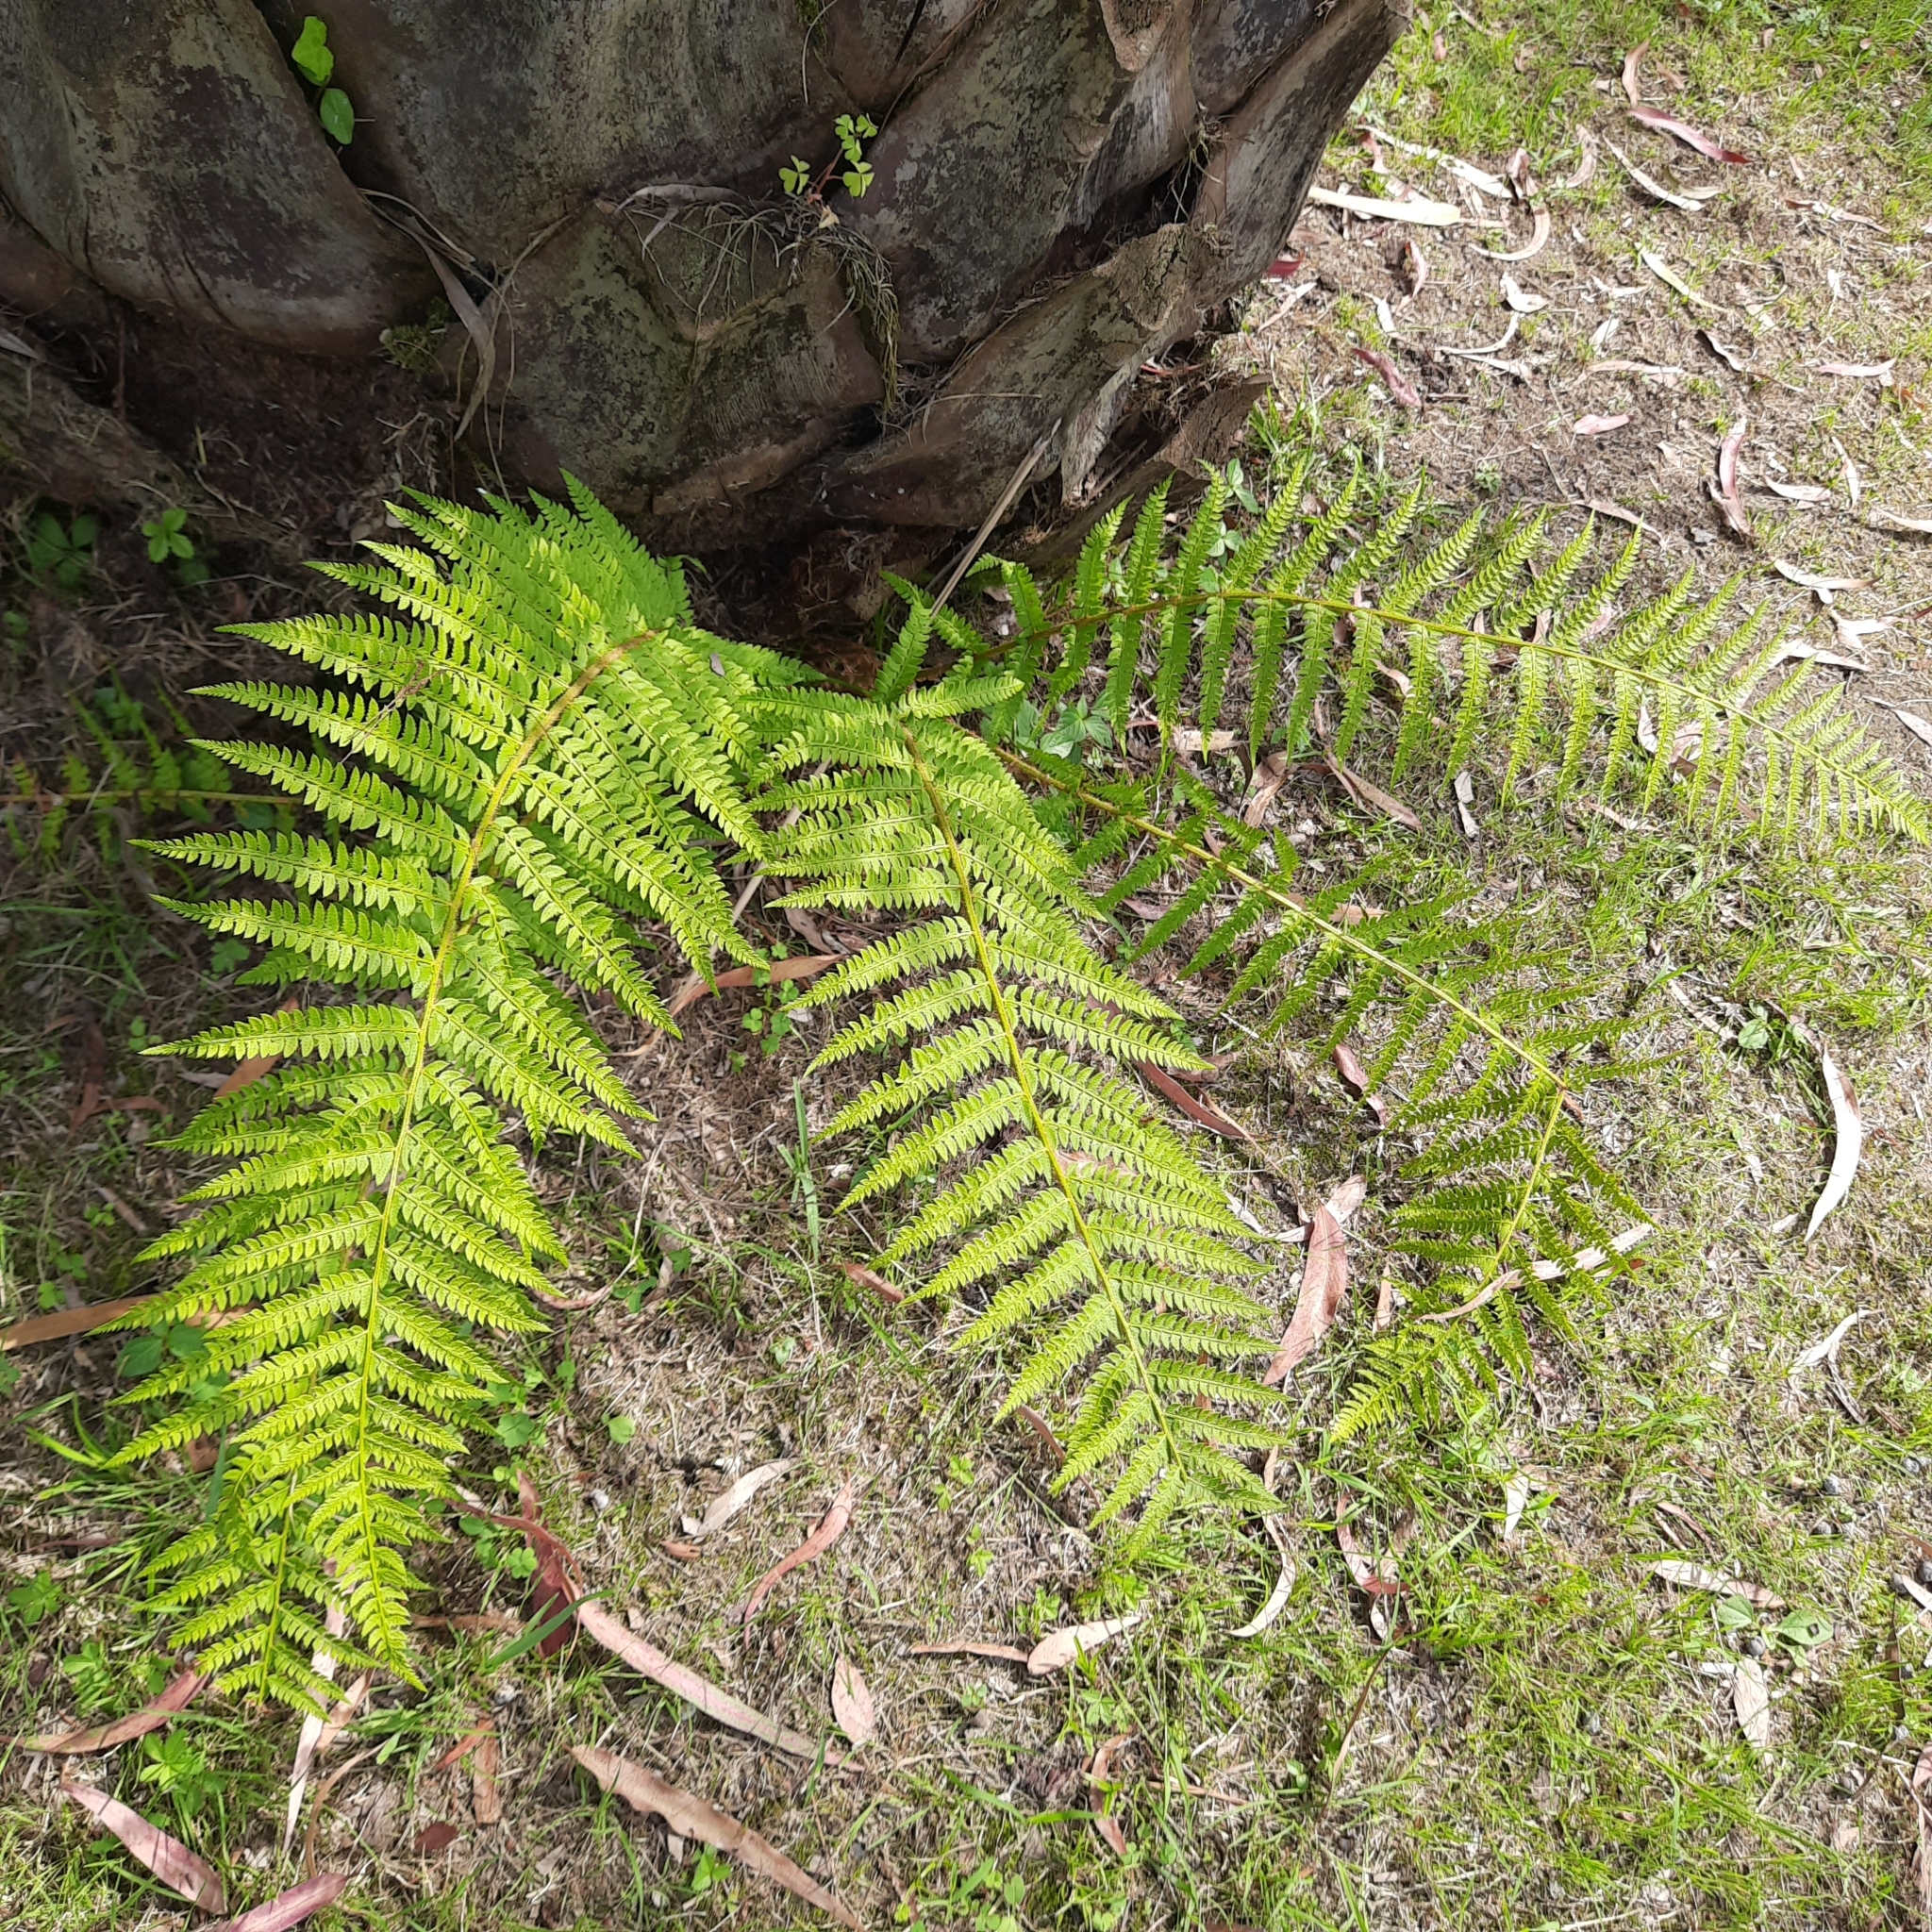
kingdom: Plantae
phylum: Tracheophyta
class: Polypodiopsida
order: Polypodiales
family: Dryopteridaceae
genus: Polystichum
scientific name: Polystichum setiferum
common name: Soft shield-fern
